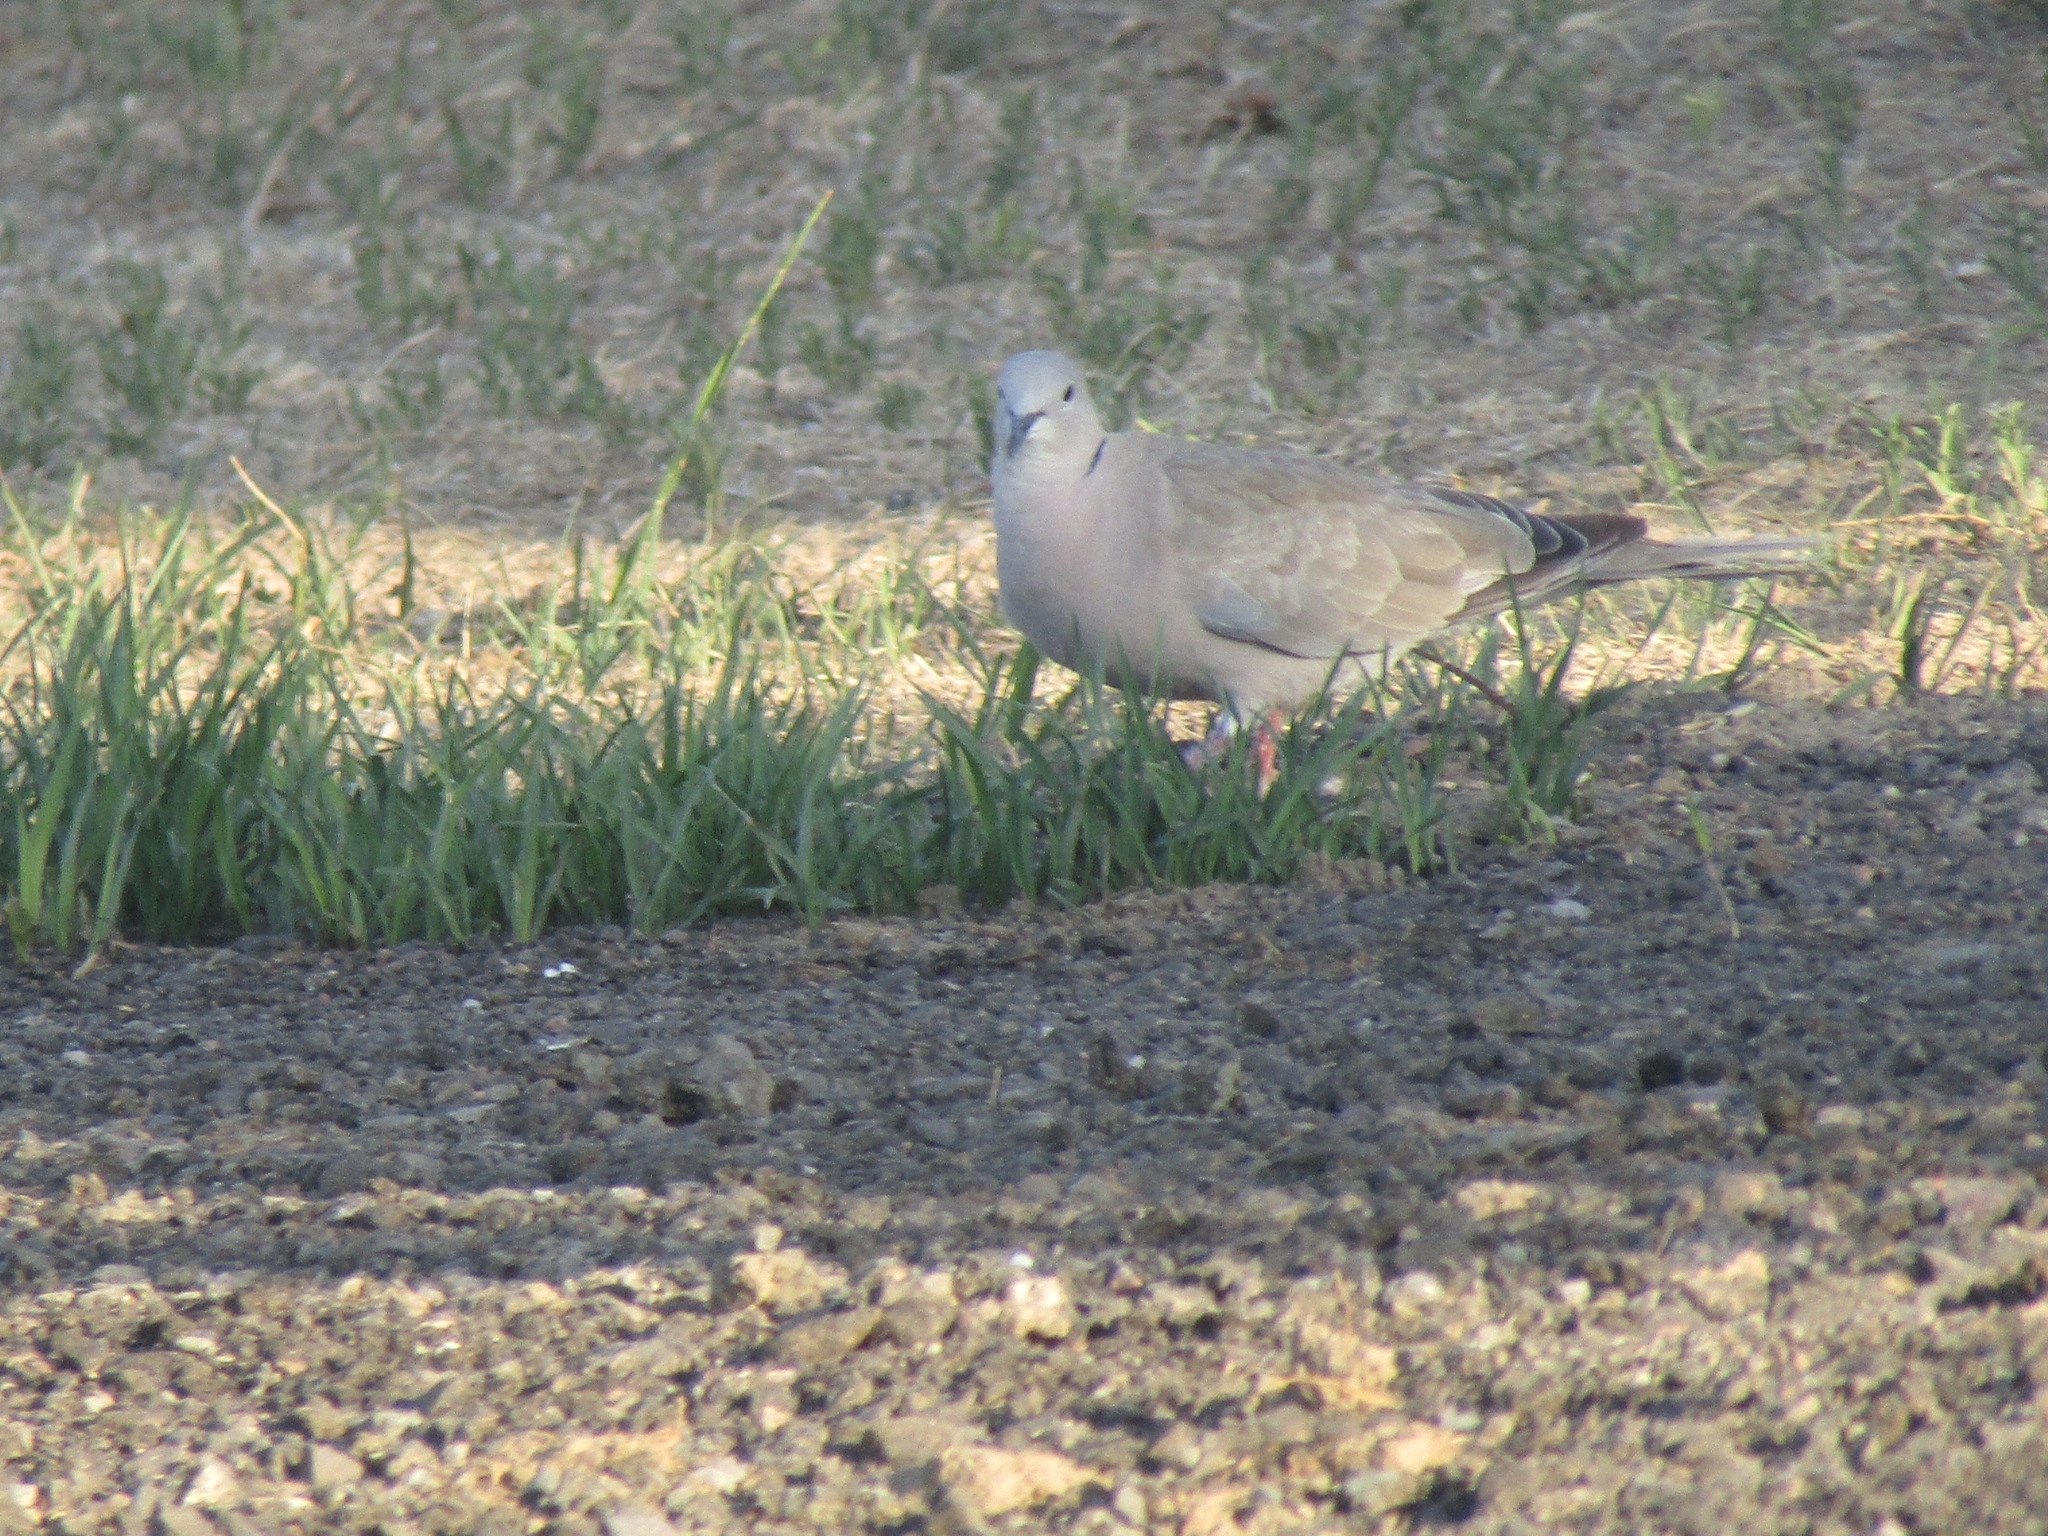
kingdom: Animalia
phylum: Chordata
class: Aves
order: Columbiformes
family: Columbidae
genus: Streptopelia
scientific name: Streptopelia decaocto
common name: Eurasian collared dove
